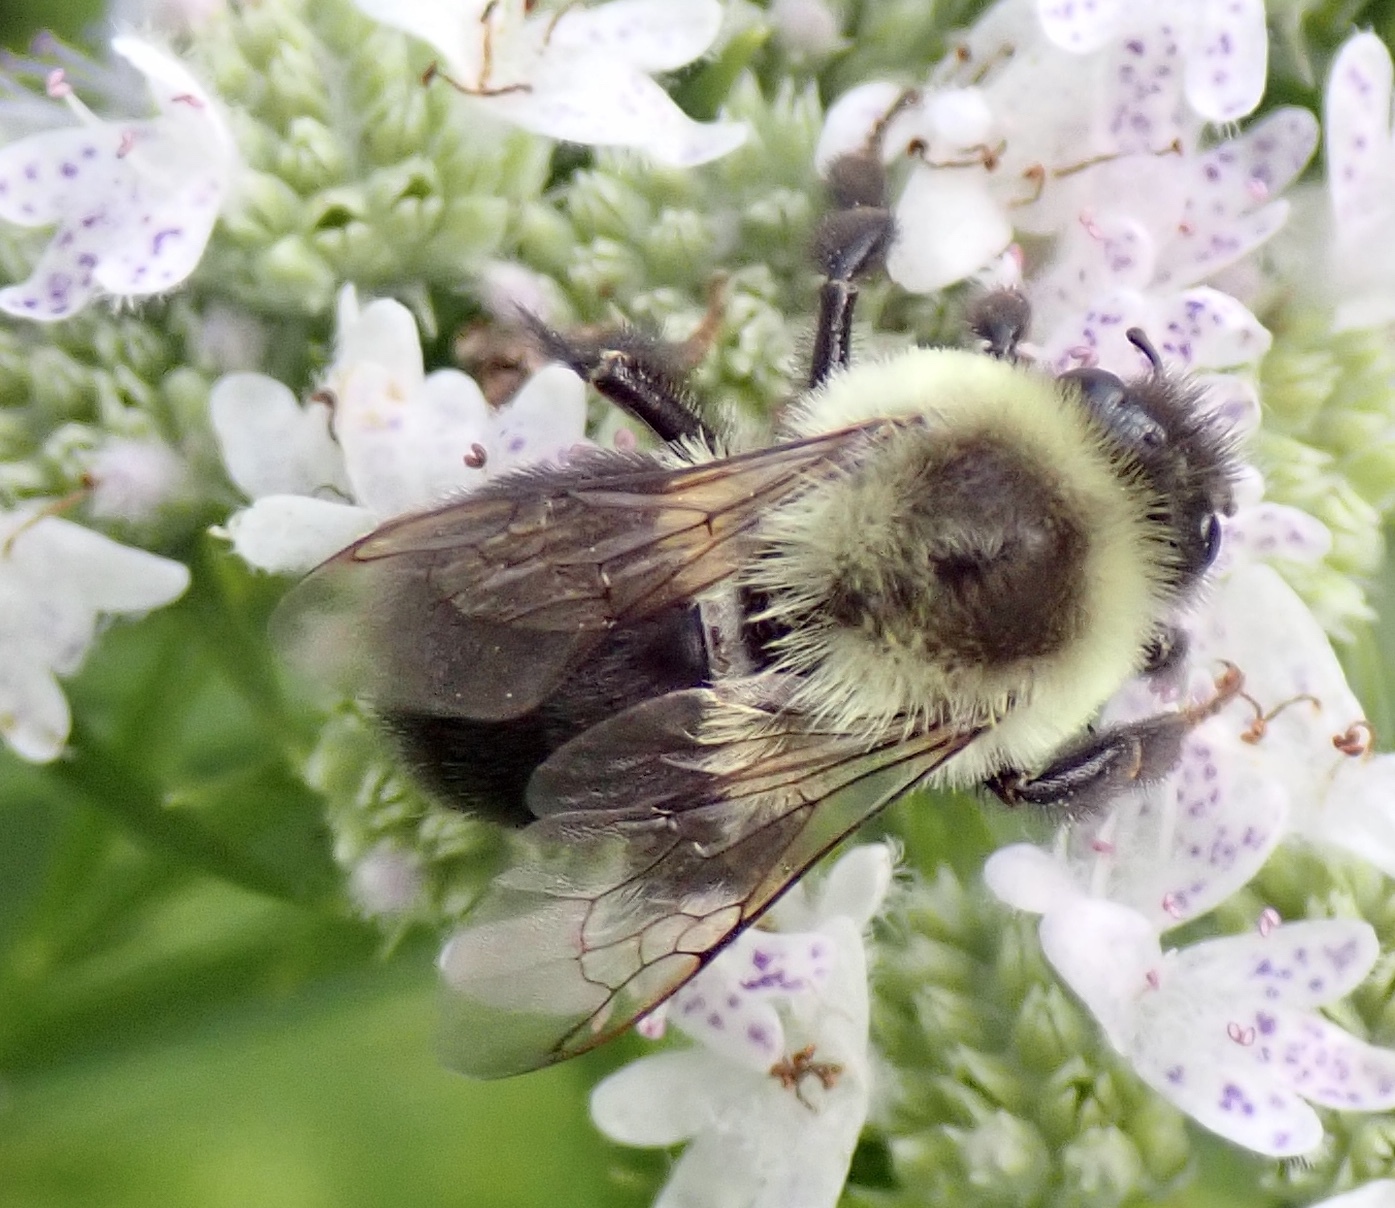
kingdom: Animalia
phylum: Arthropoda
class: Insecta
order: Hymenoptera
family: Apidae
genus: Bombus
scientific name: Bombus impatiens
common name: Common eastern bumble bee
